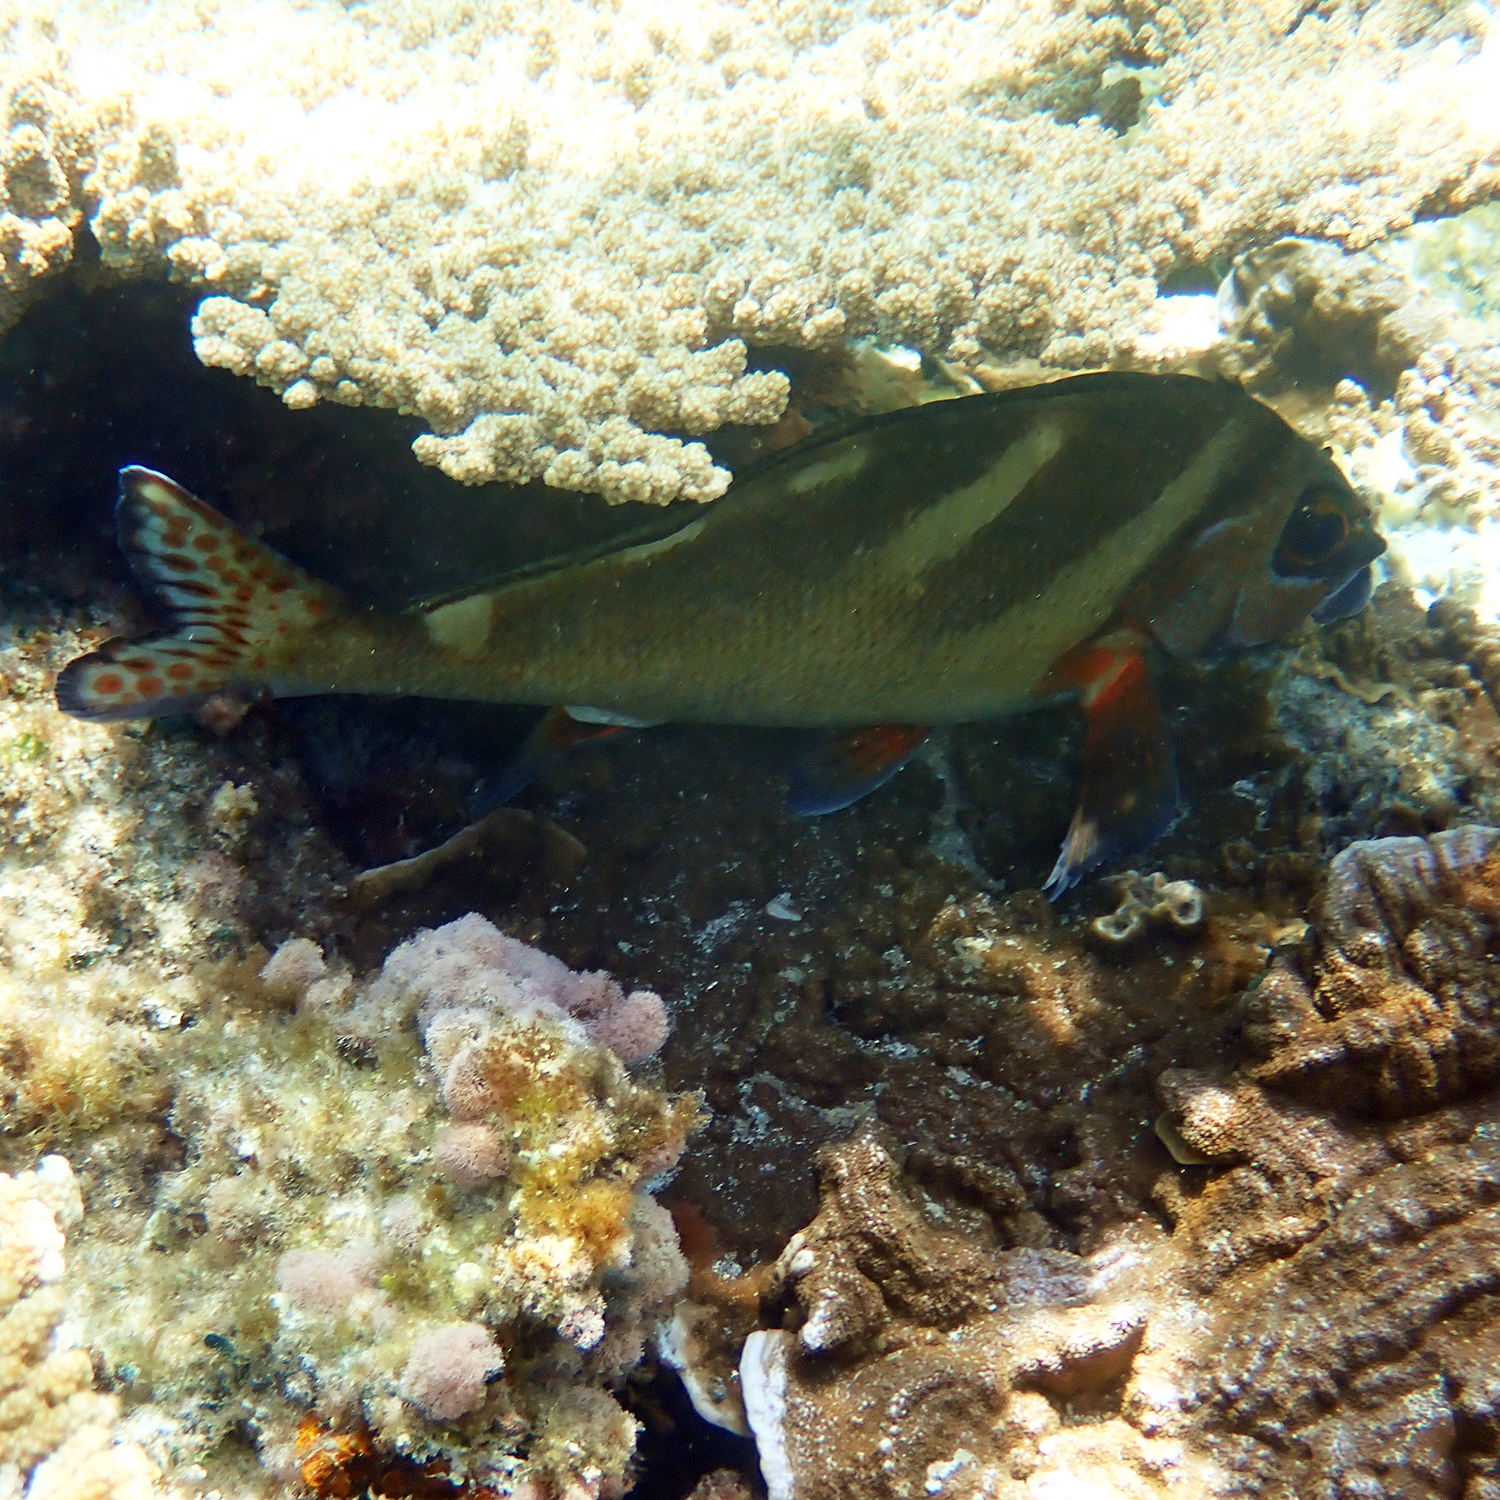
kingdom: Animalia
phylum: Chordata
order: Perciformes
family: Latridae
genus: Morwong
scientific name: Morwong ephippium
